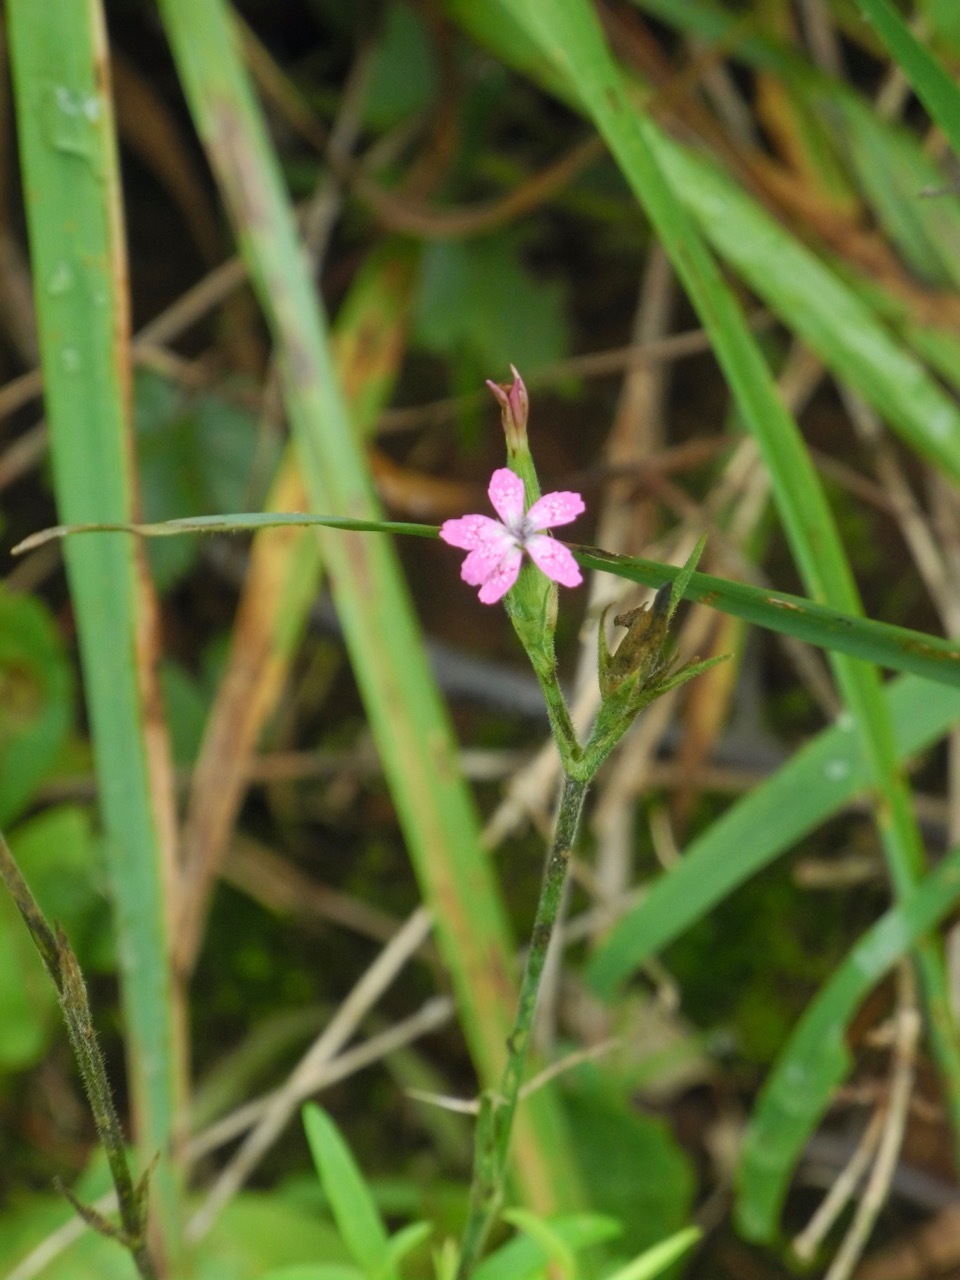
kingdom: Plantae
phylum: Tracheophyta
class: Magnoliopsida
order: Caryophyllales
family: Caryophyllaceae
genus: Dianthus
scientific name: Dianthus armeria
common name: Deptford pink
